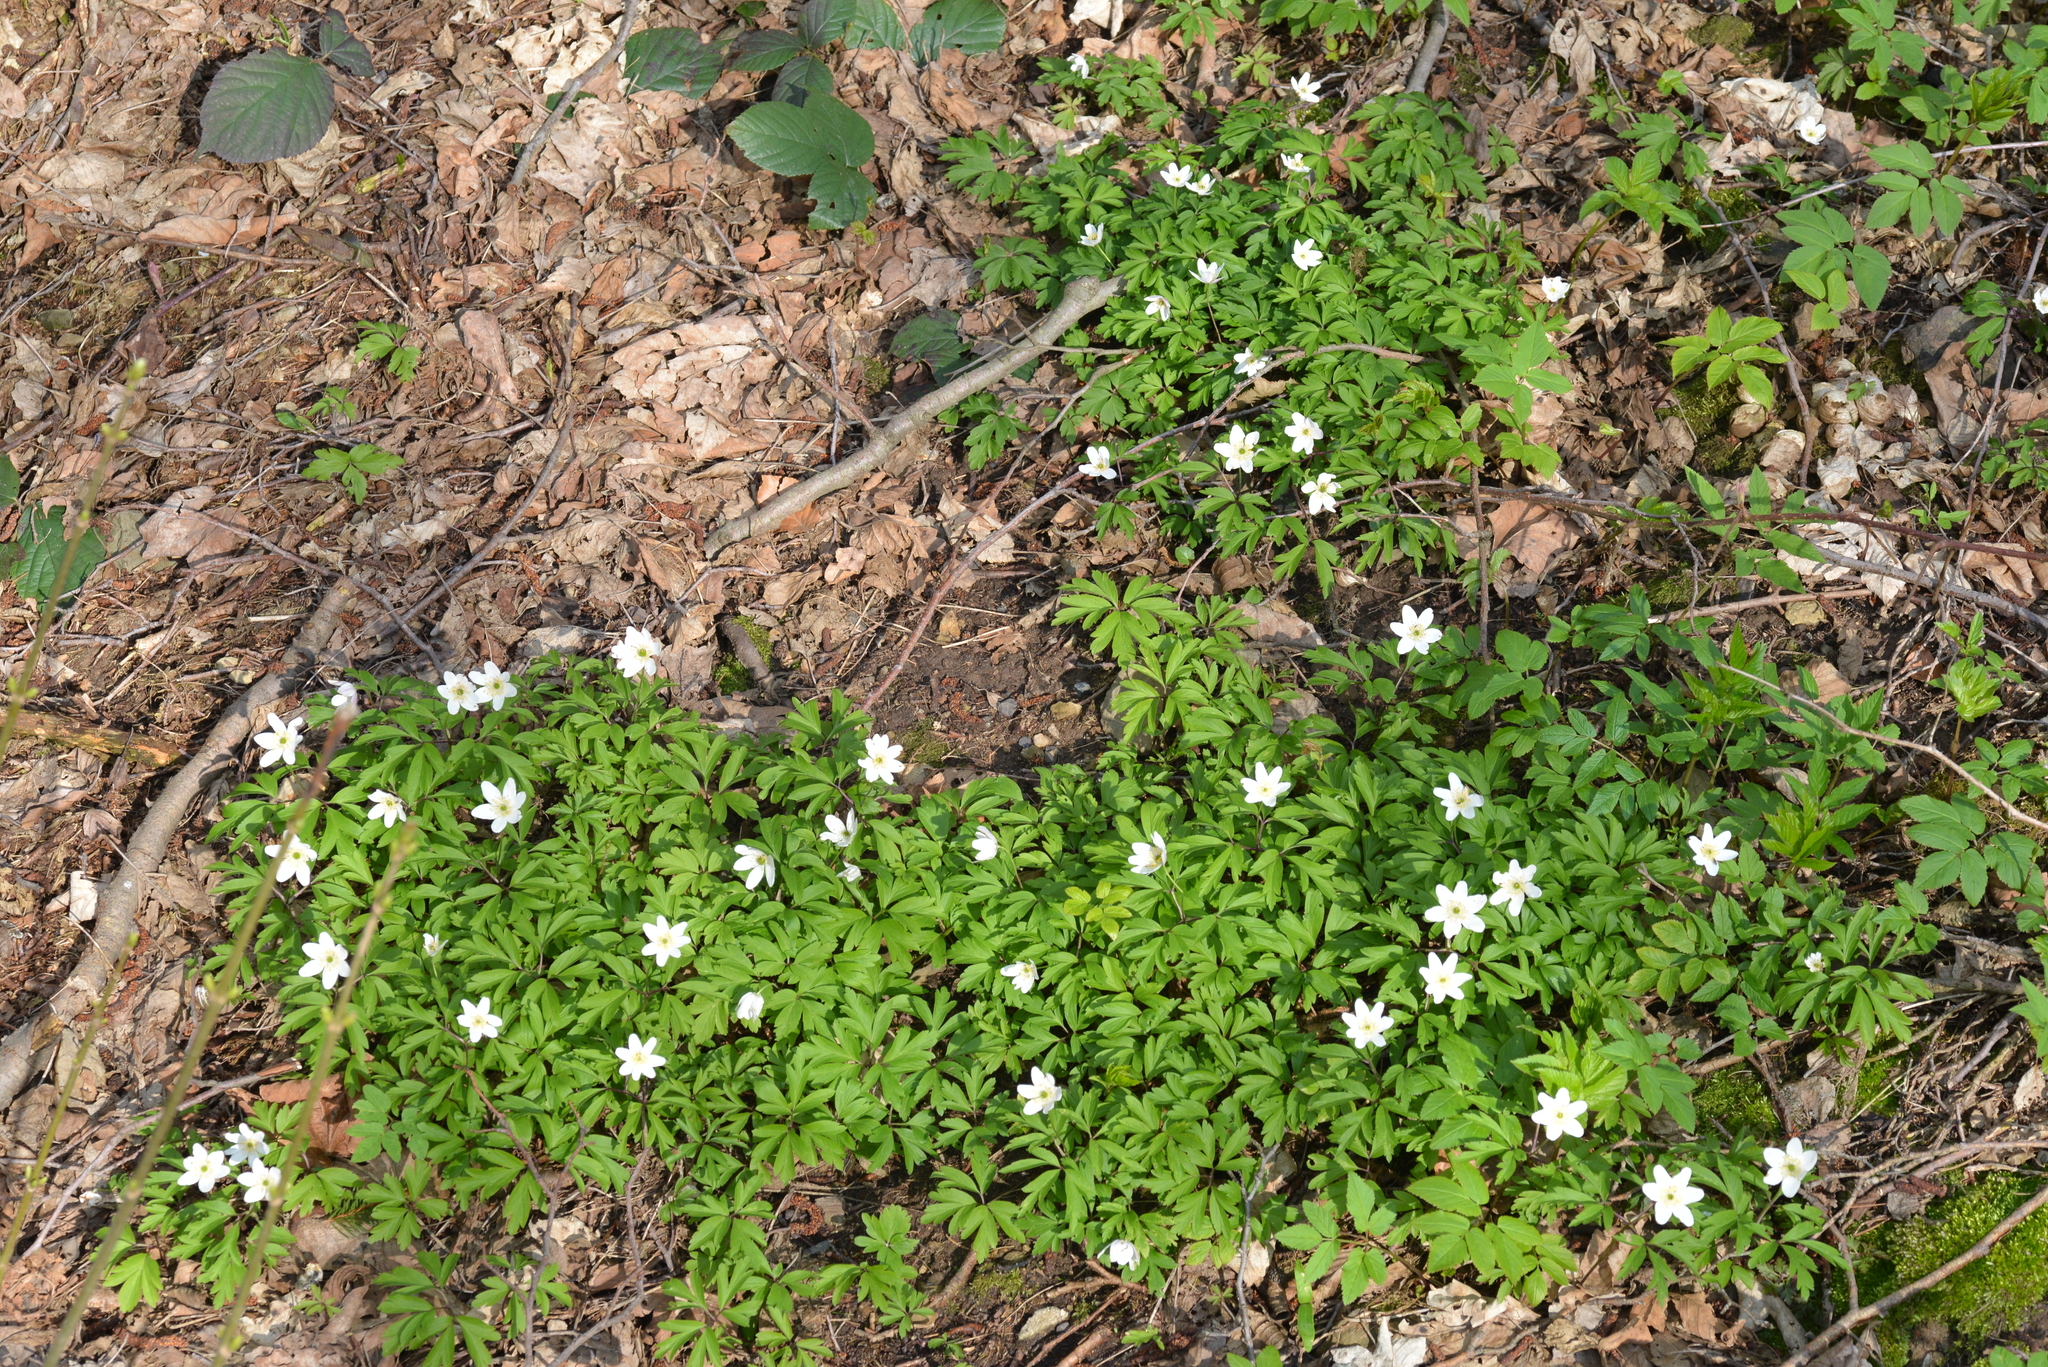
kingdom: Plantae
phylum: Tracheophyta
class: Magnoliopsida
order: Ranunculales
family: Ranunculaceae
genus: Anemone
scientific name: Anemone nemorosa
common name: Wood anemone
